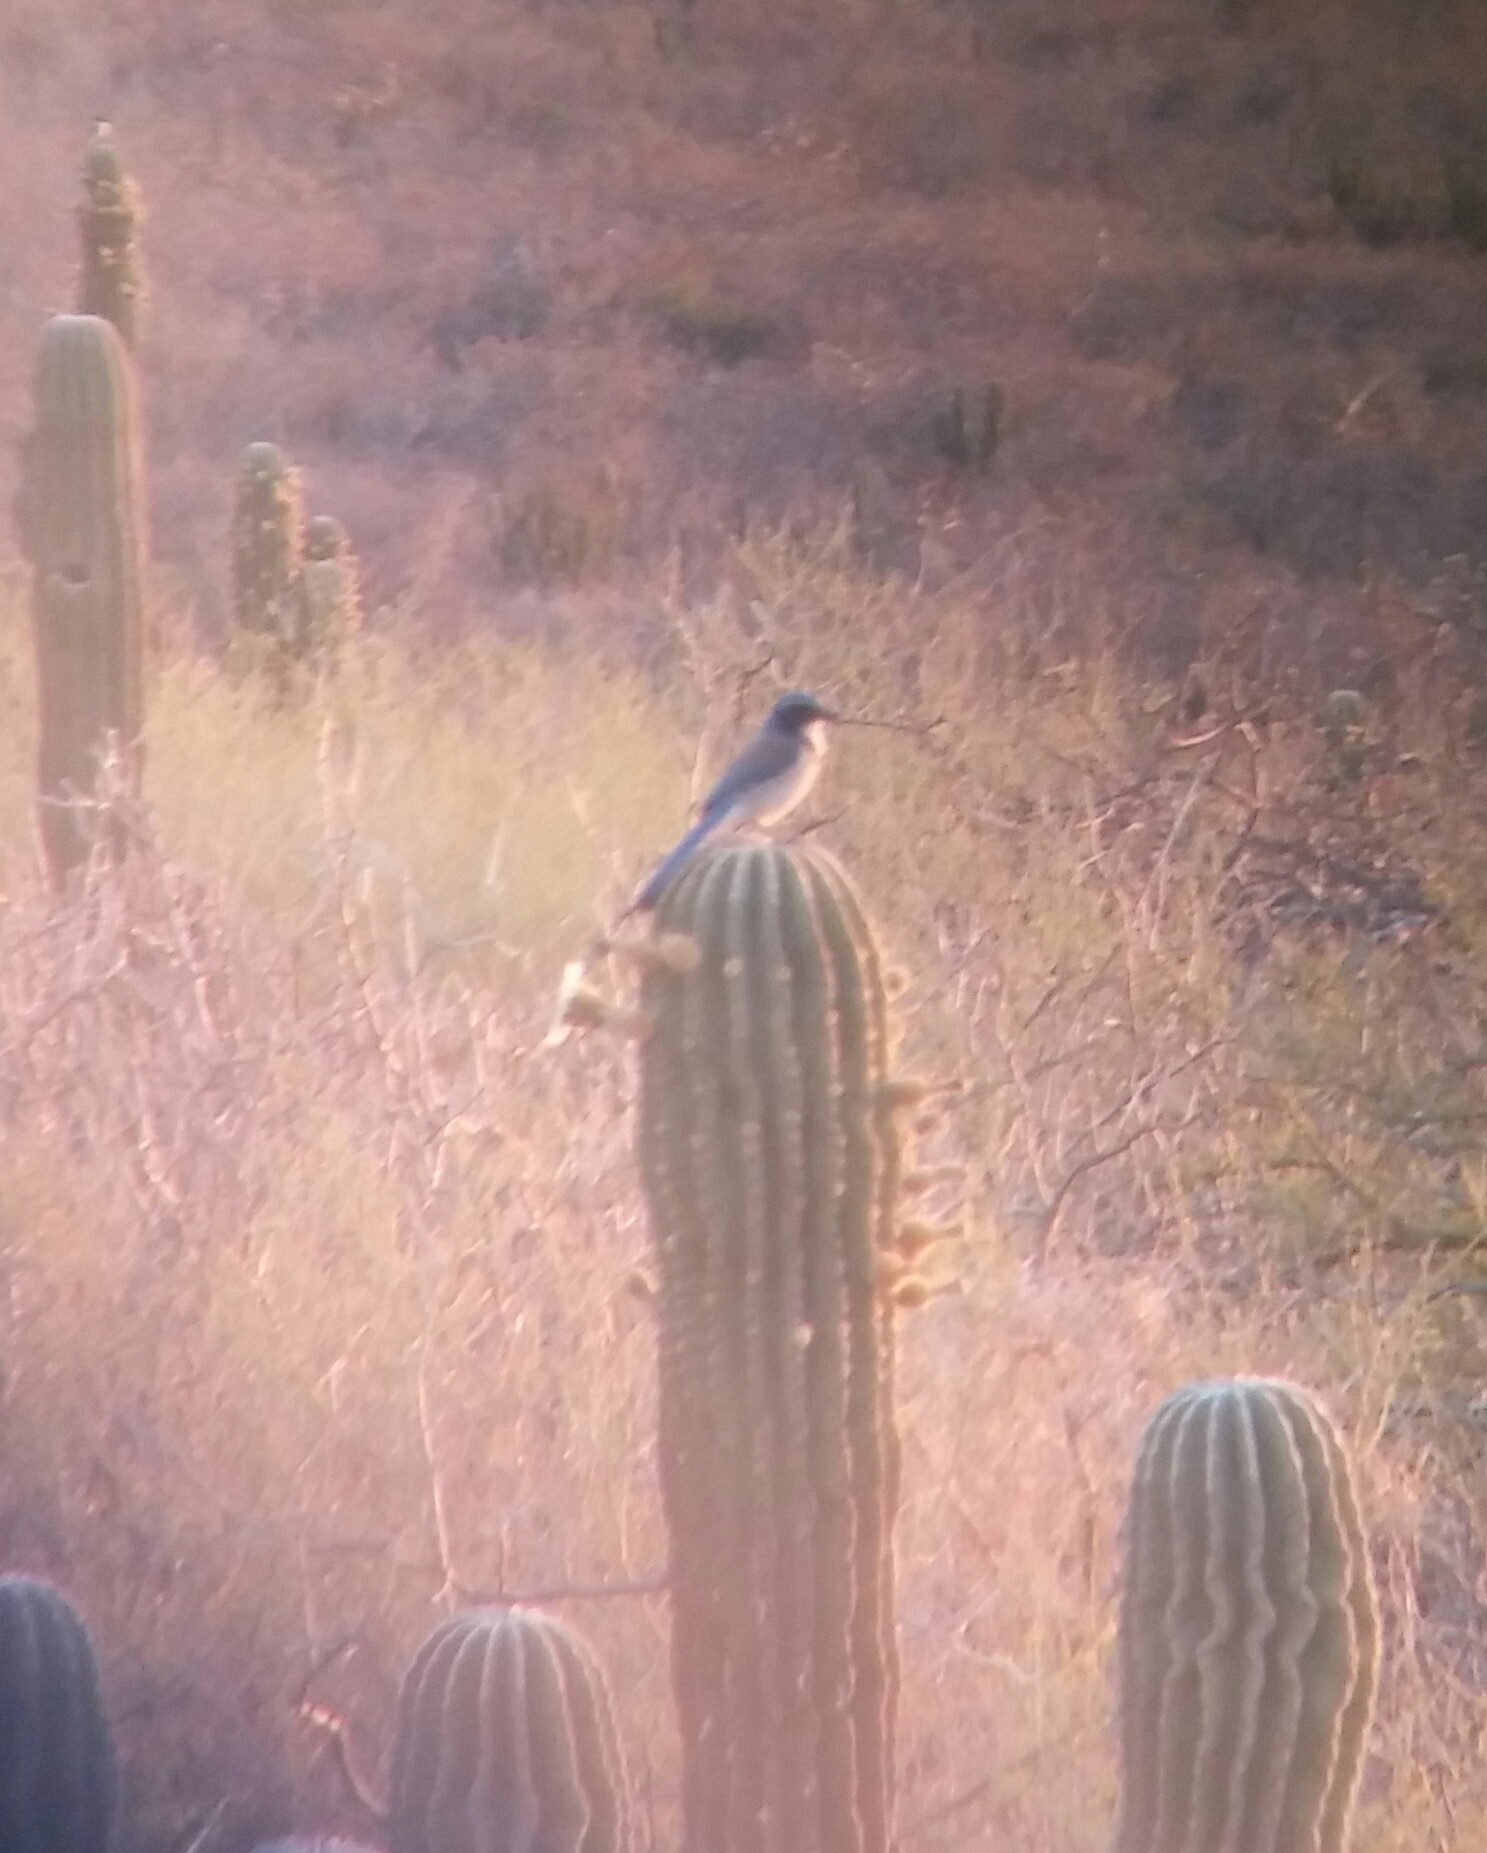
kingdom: Animalia
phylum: Chordata
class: Aves
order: Passeriformes
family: Corvidae
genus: Aphelocoma
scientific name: Aphelocoma californica
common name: California scrub-jay
